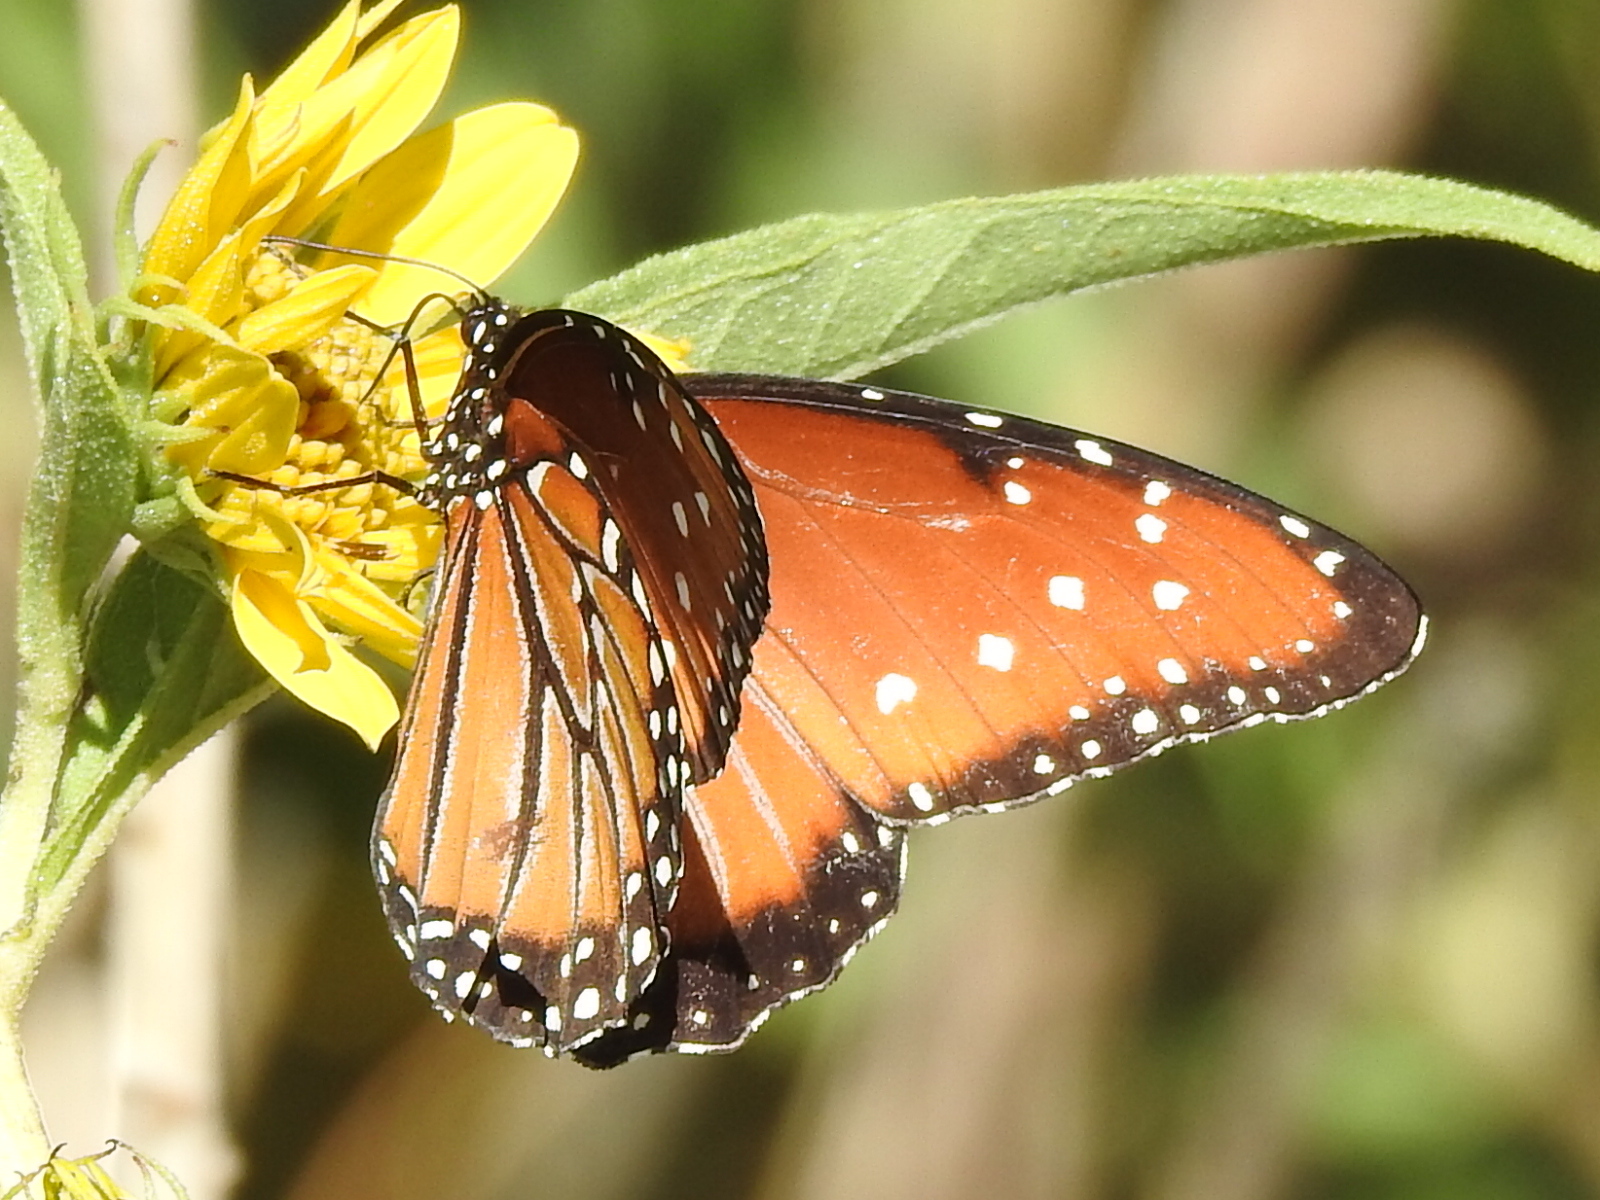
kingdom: Animalia
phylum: Arthropoda
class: Insecta
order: Lepidoptera
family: Nymphalidae
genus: Danaus
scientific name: Danaus gilippus
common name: Queen
